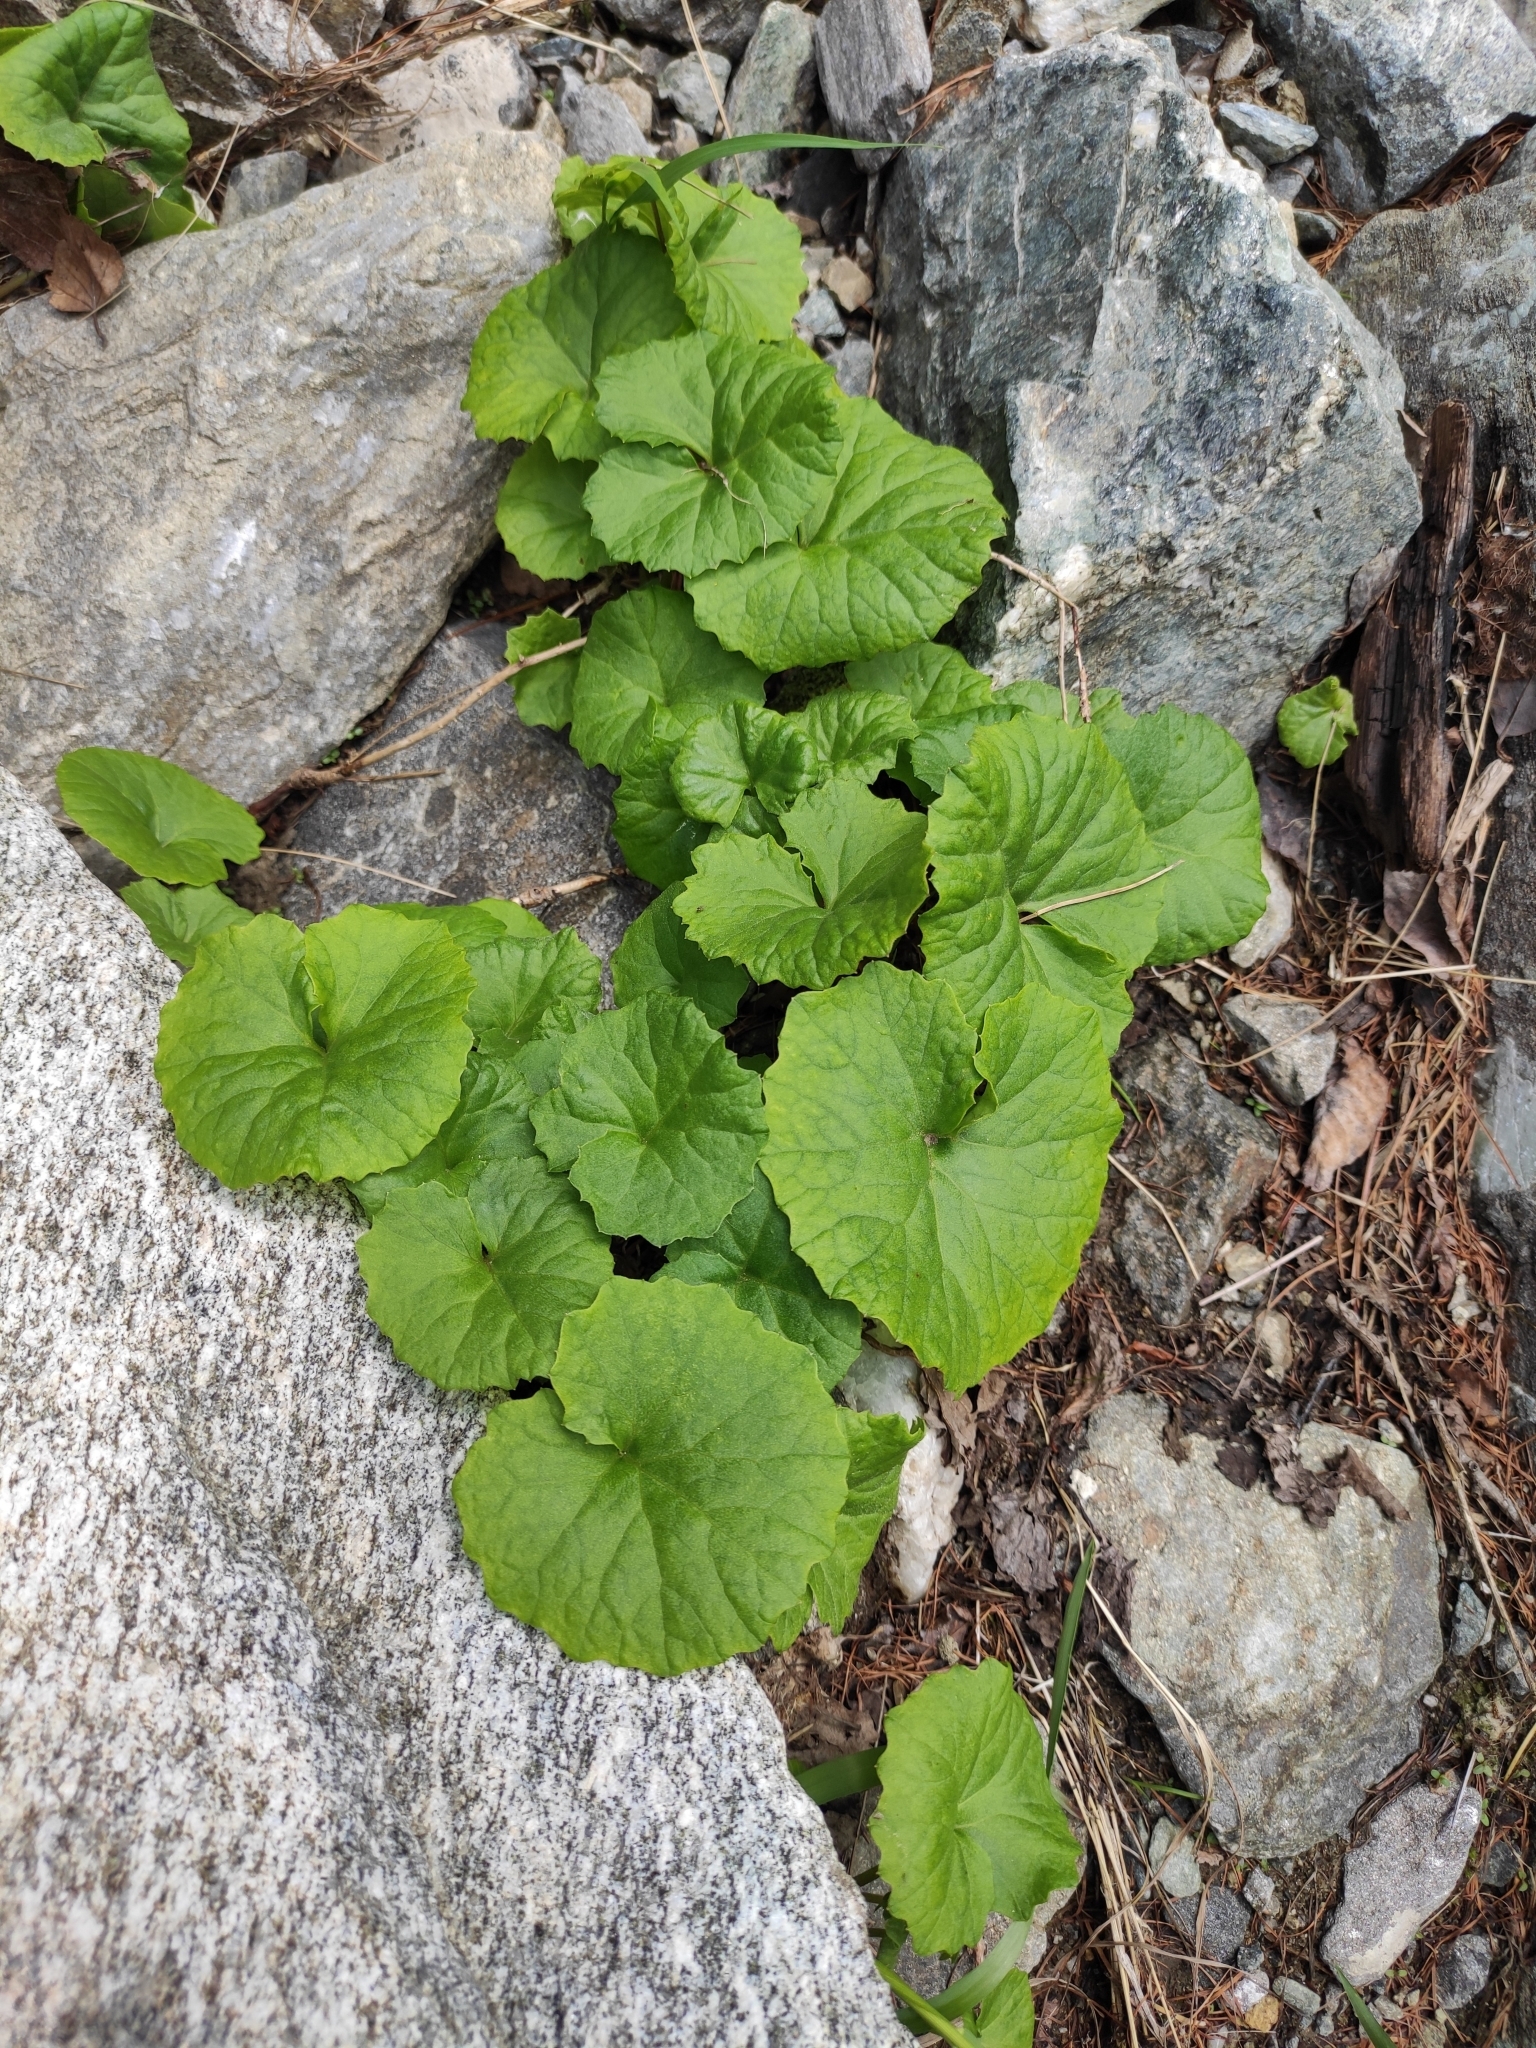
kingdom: Plantae
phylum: Tracheophyta
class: Magnoliopsida
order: Brassicales
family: Brassicaceae
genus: Eutrema
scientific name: Eutrema cordifolium
